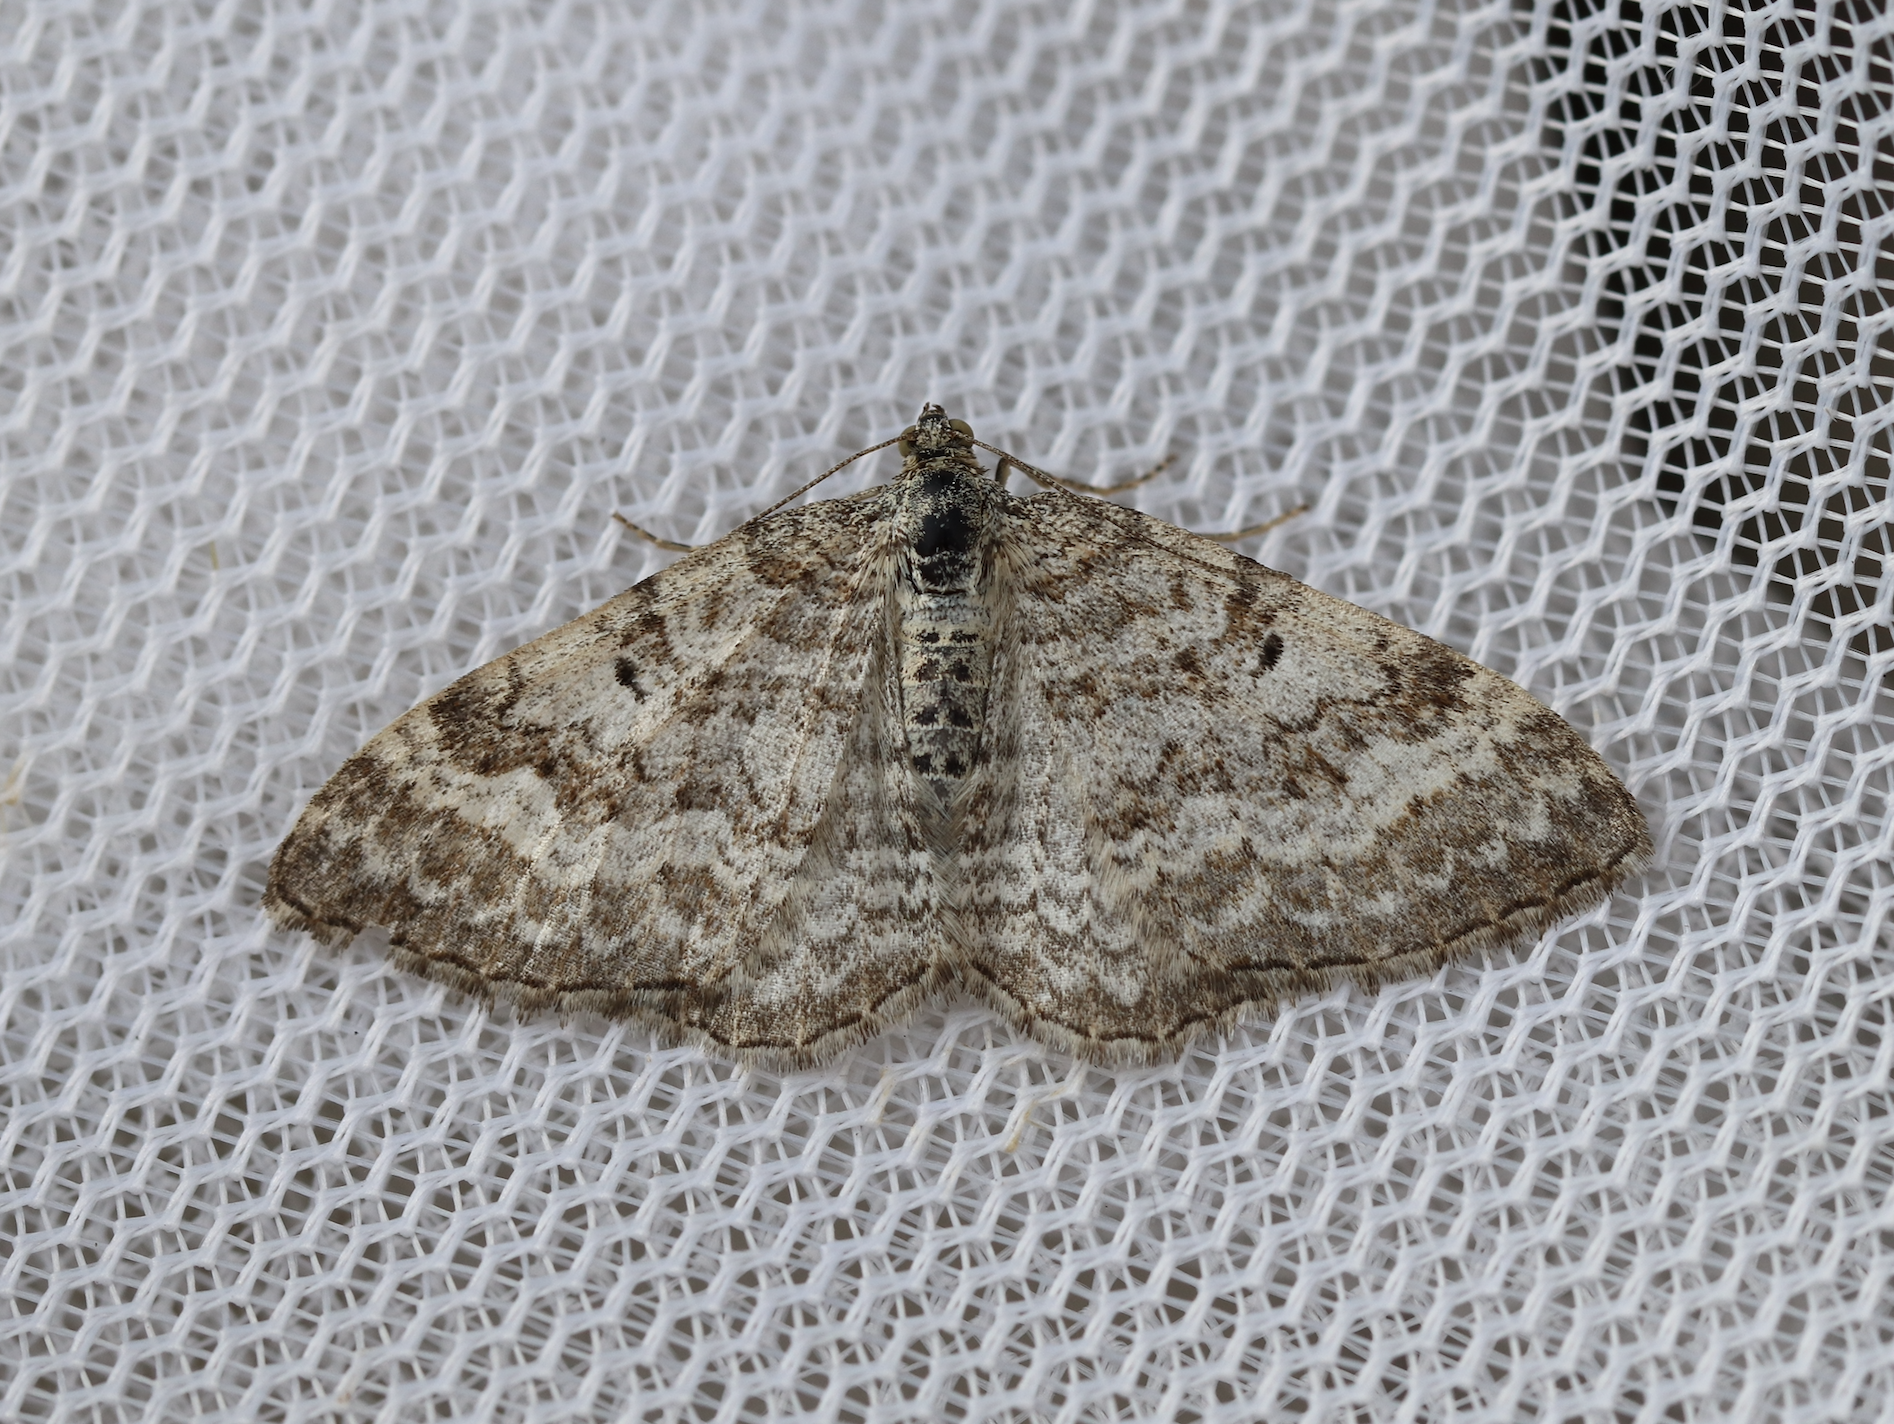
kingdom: Animalia
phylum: Arthropoda
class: Insecta
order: Lepidoptera
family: Geometridae
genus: Euphyia
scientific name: Euphyia molluginata
